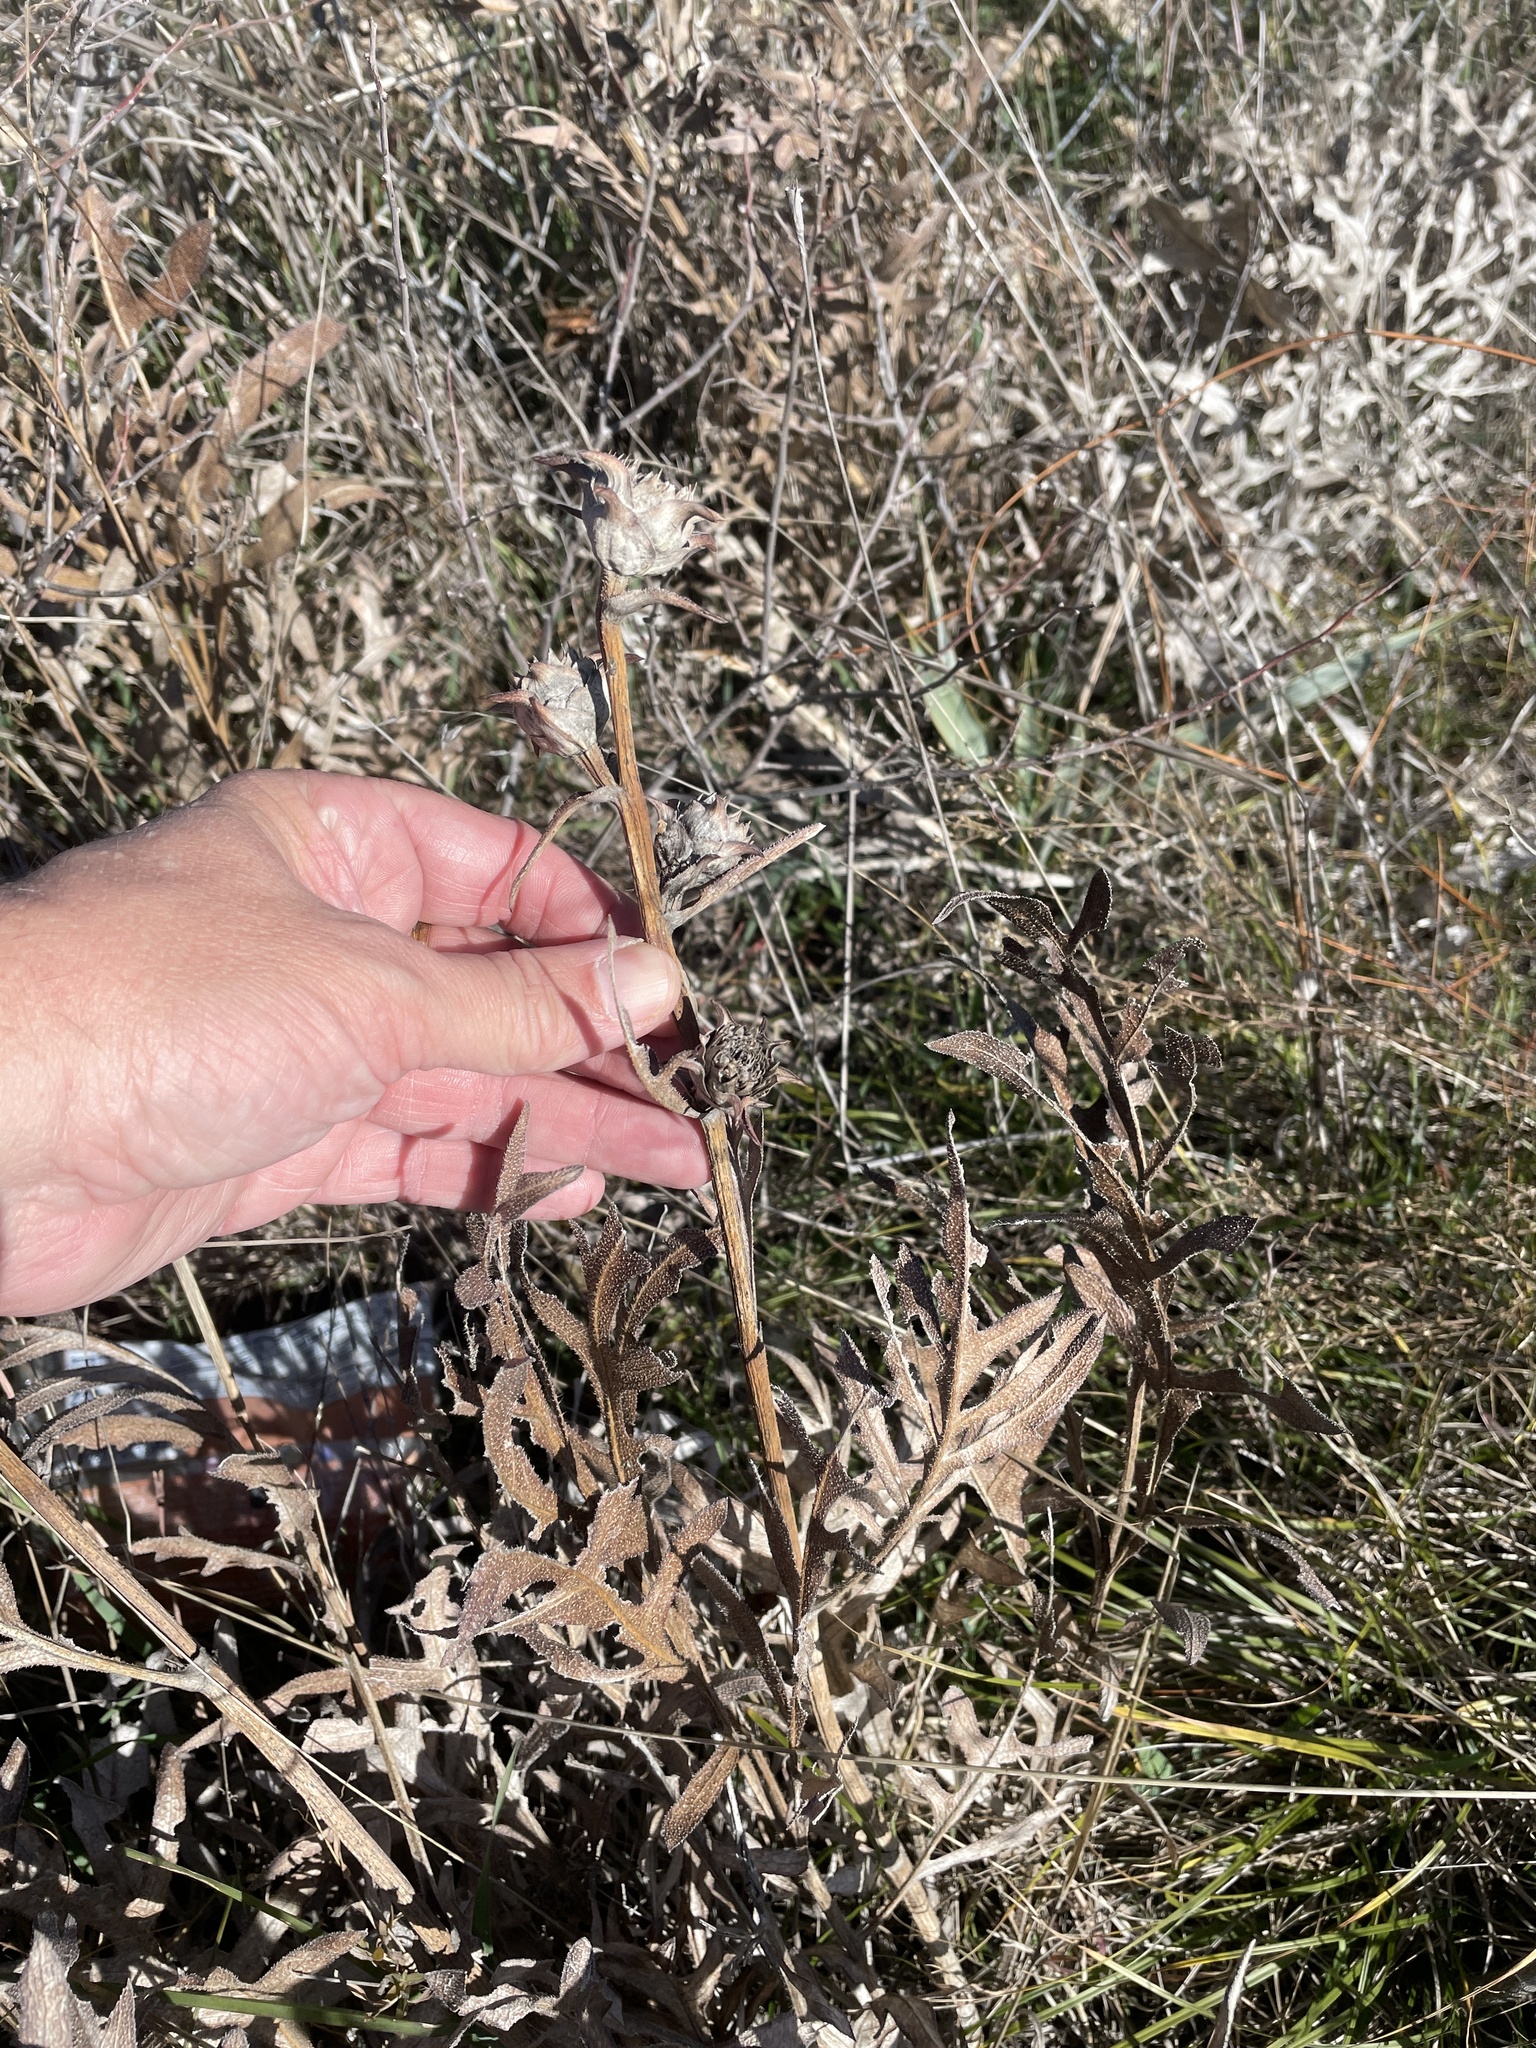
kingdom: Plantae
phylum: Tracheophyta
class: Magnoliopsida
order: Asterales
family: Asteraceae
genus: Silphium
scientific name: Silphium albiflorum
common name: White rosinweed
